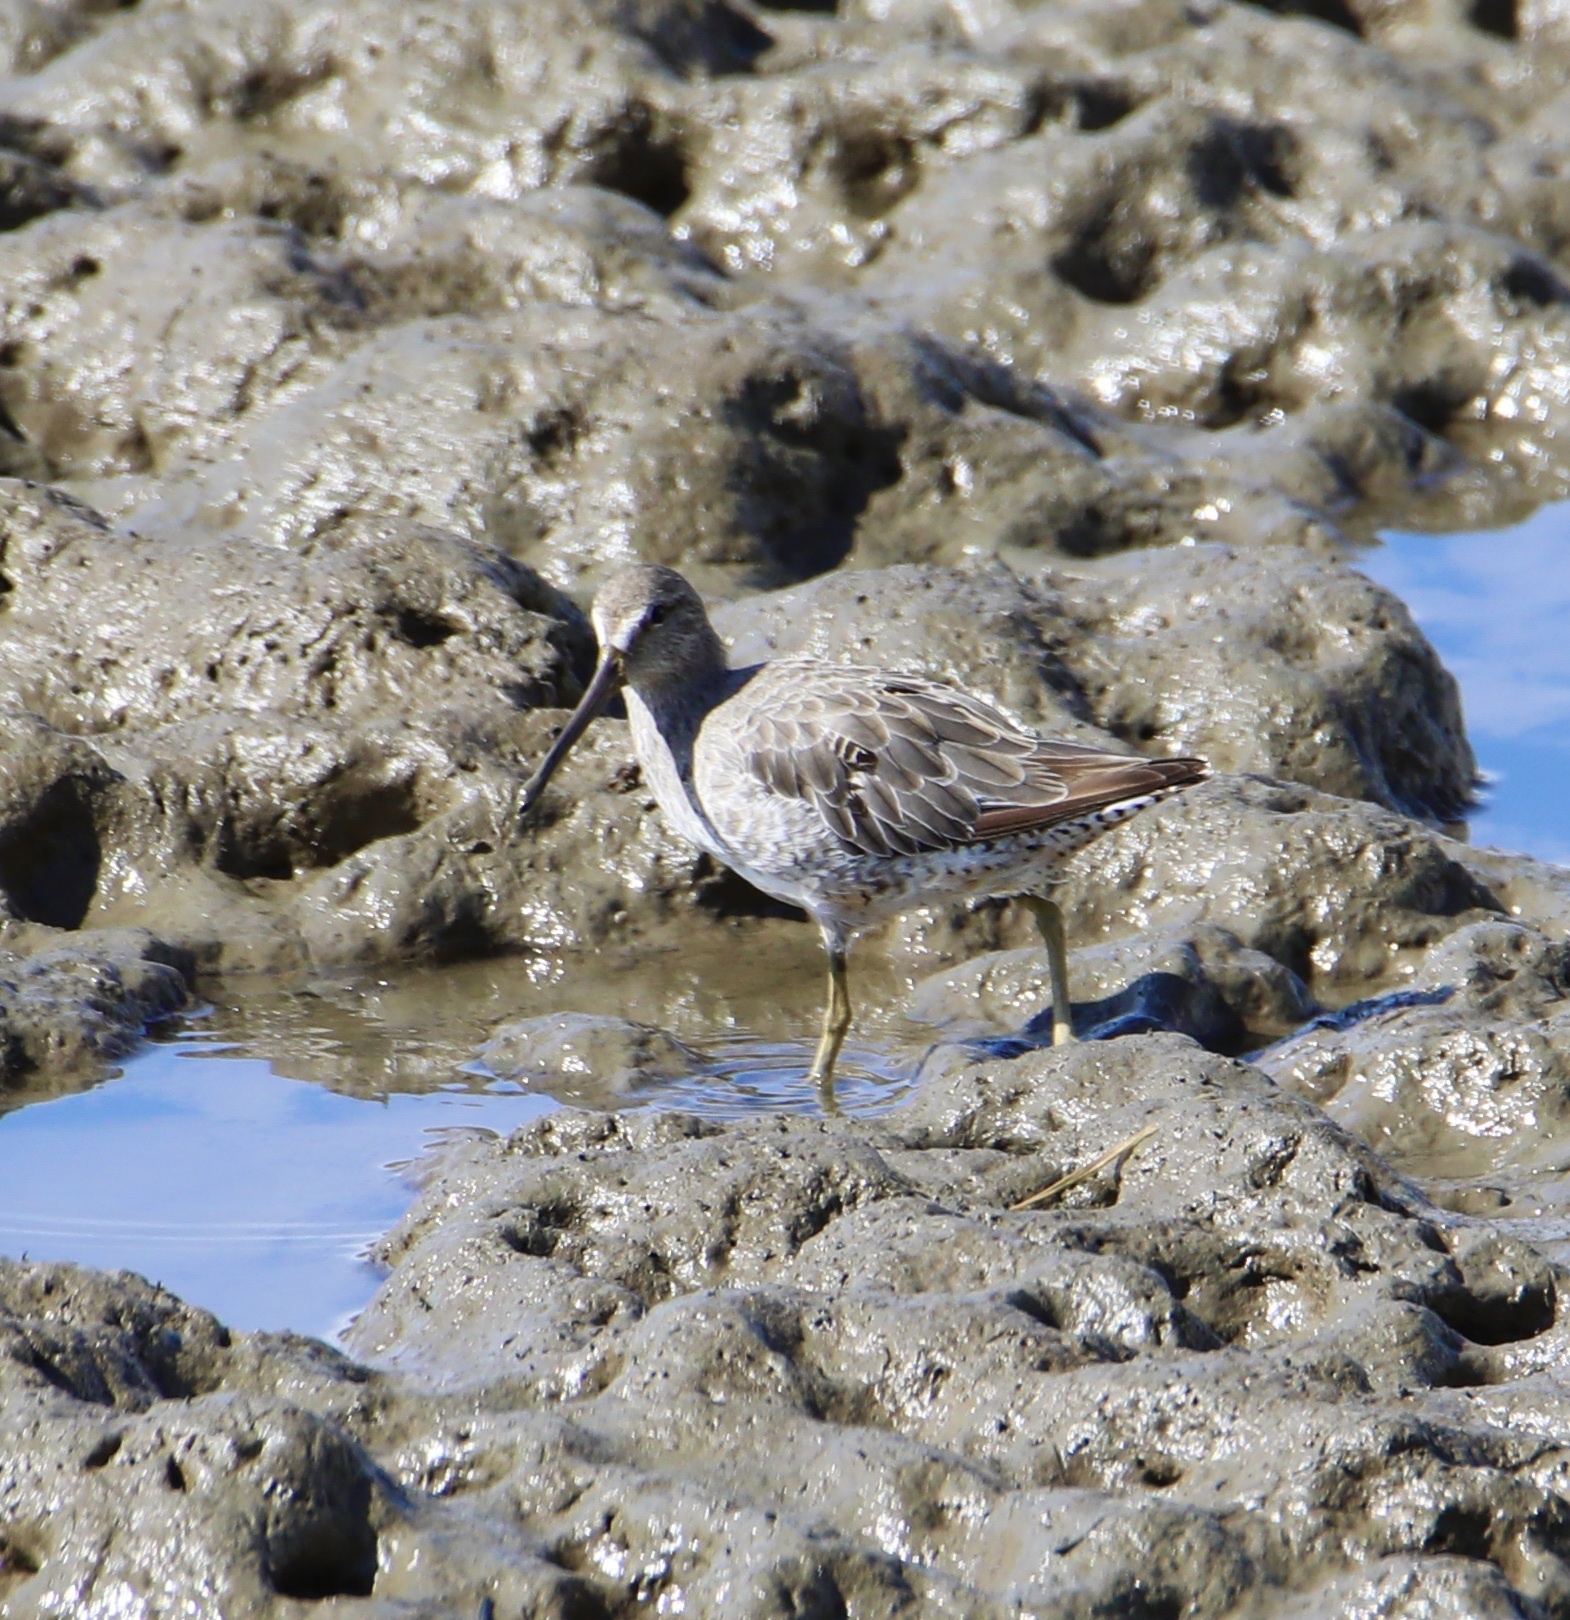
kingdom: Animalia
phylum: Chordata
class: Aves
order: Charadriiformes
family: Scolopacidae
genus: Limnodromus
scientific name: Limnodromus griseus
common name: Short-billed dowitcher
